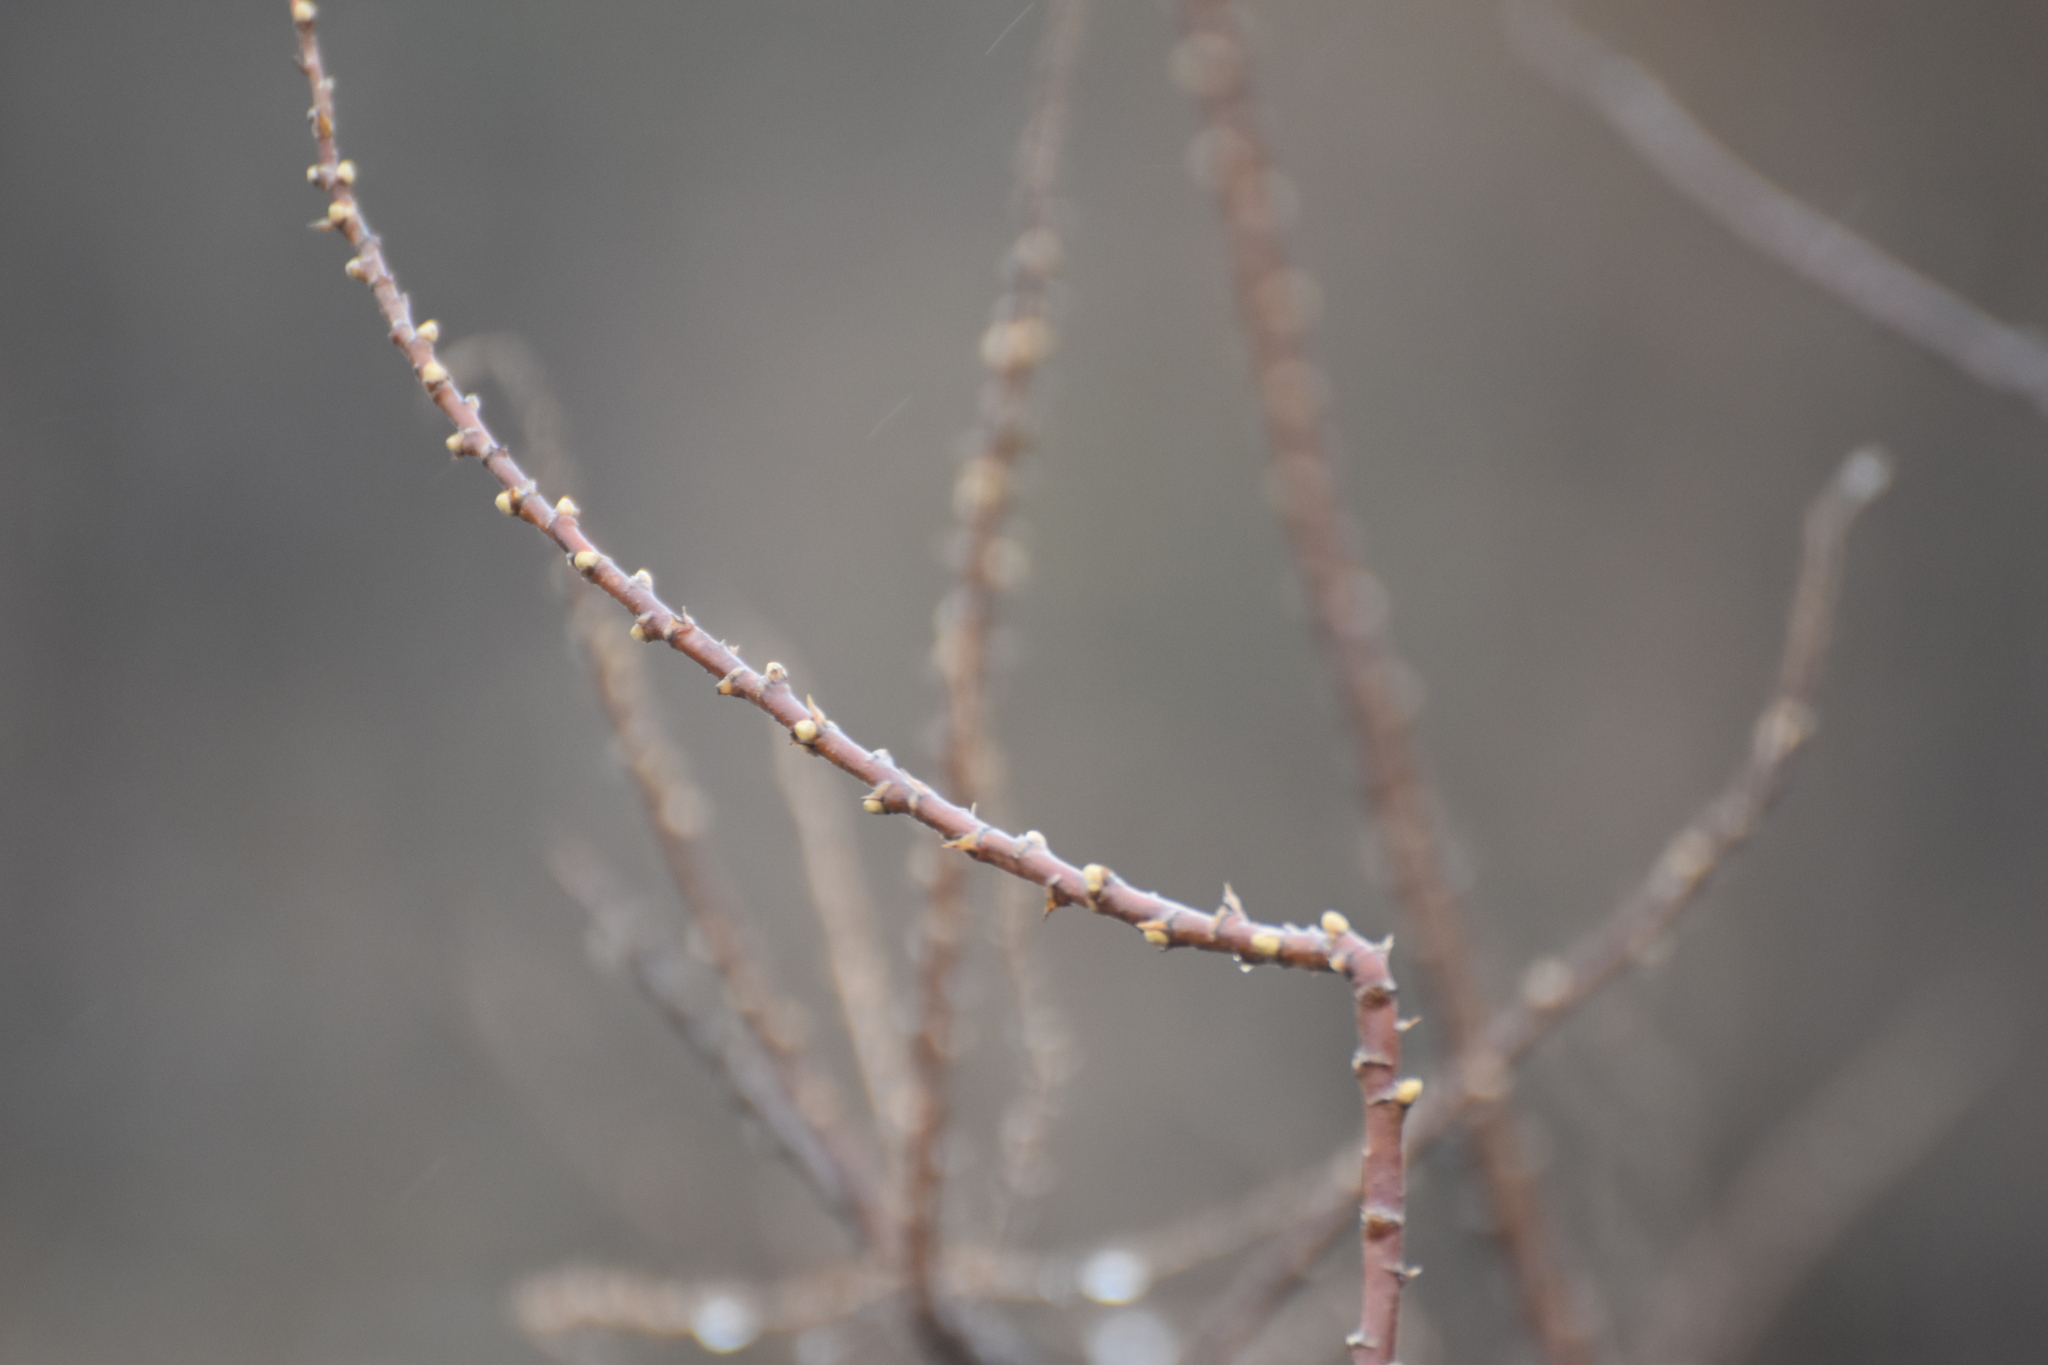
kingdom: Plantae
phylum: Tracheophyta
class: Magnoliopsida
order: Rosales
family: Elaeagnaceae
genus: Hippophae
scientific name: Hippophae rhamnoides
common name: Sea-buckthorn
